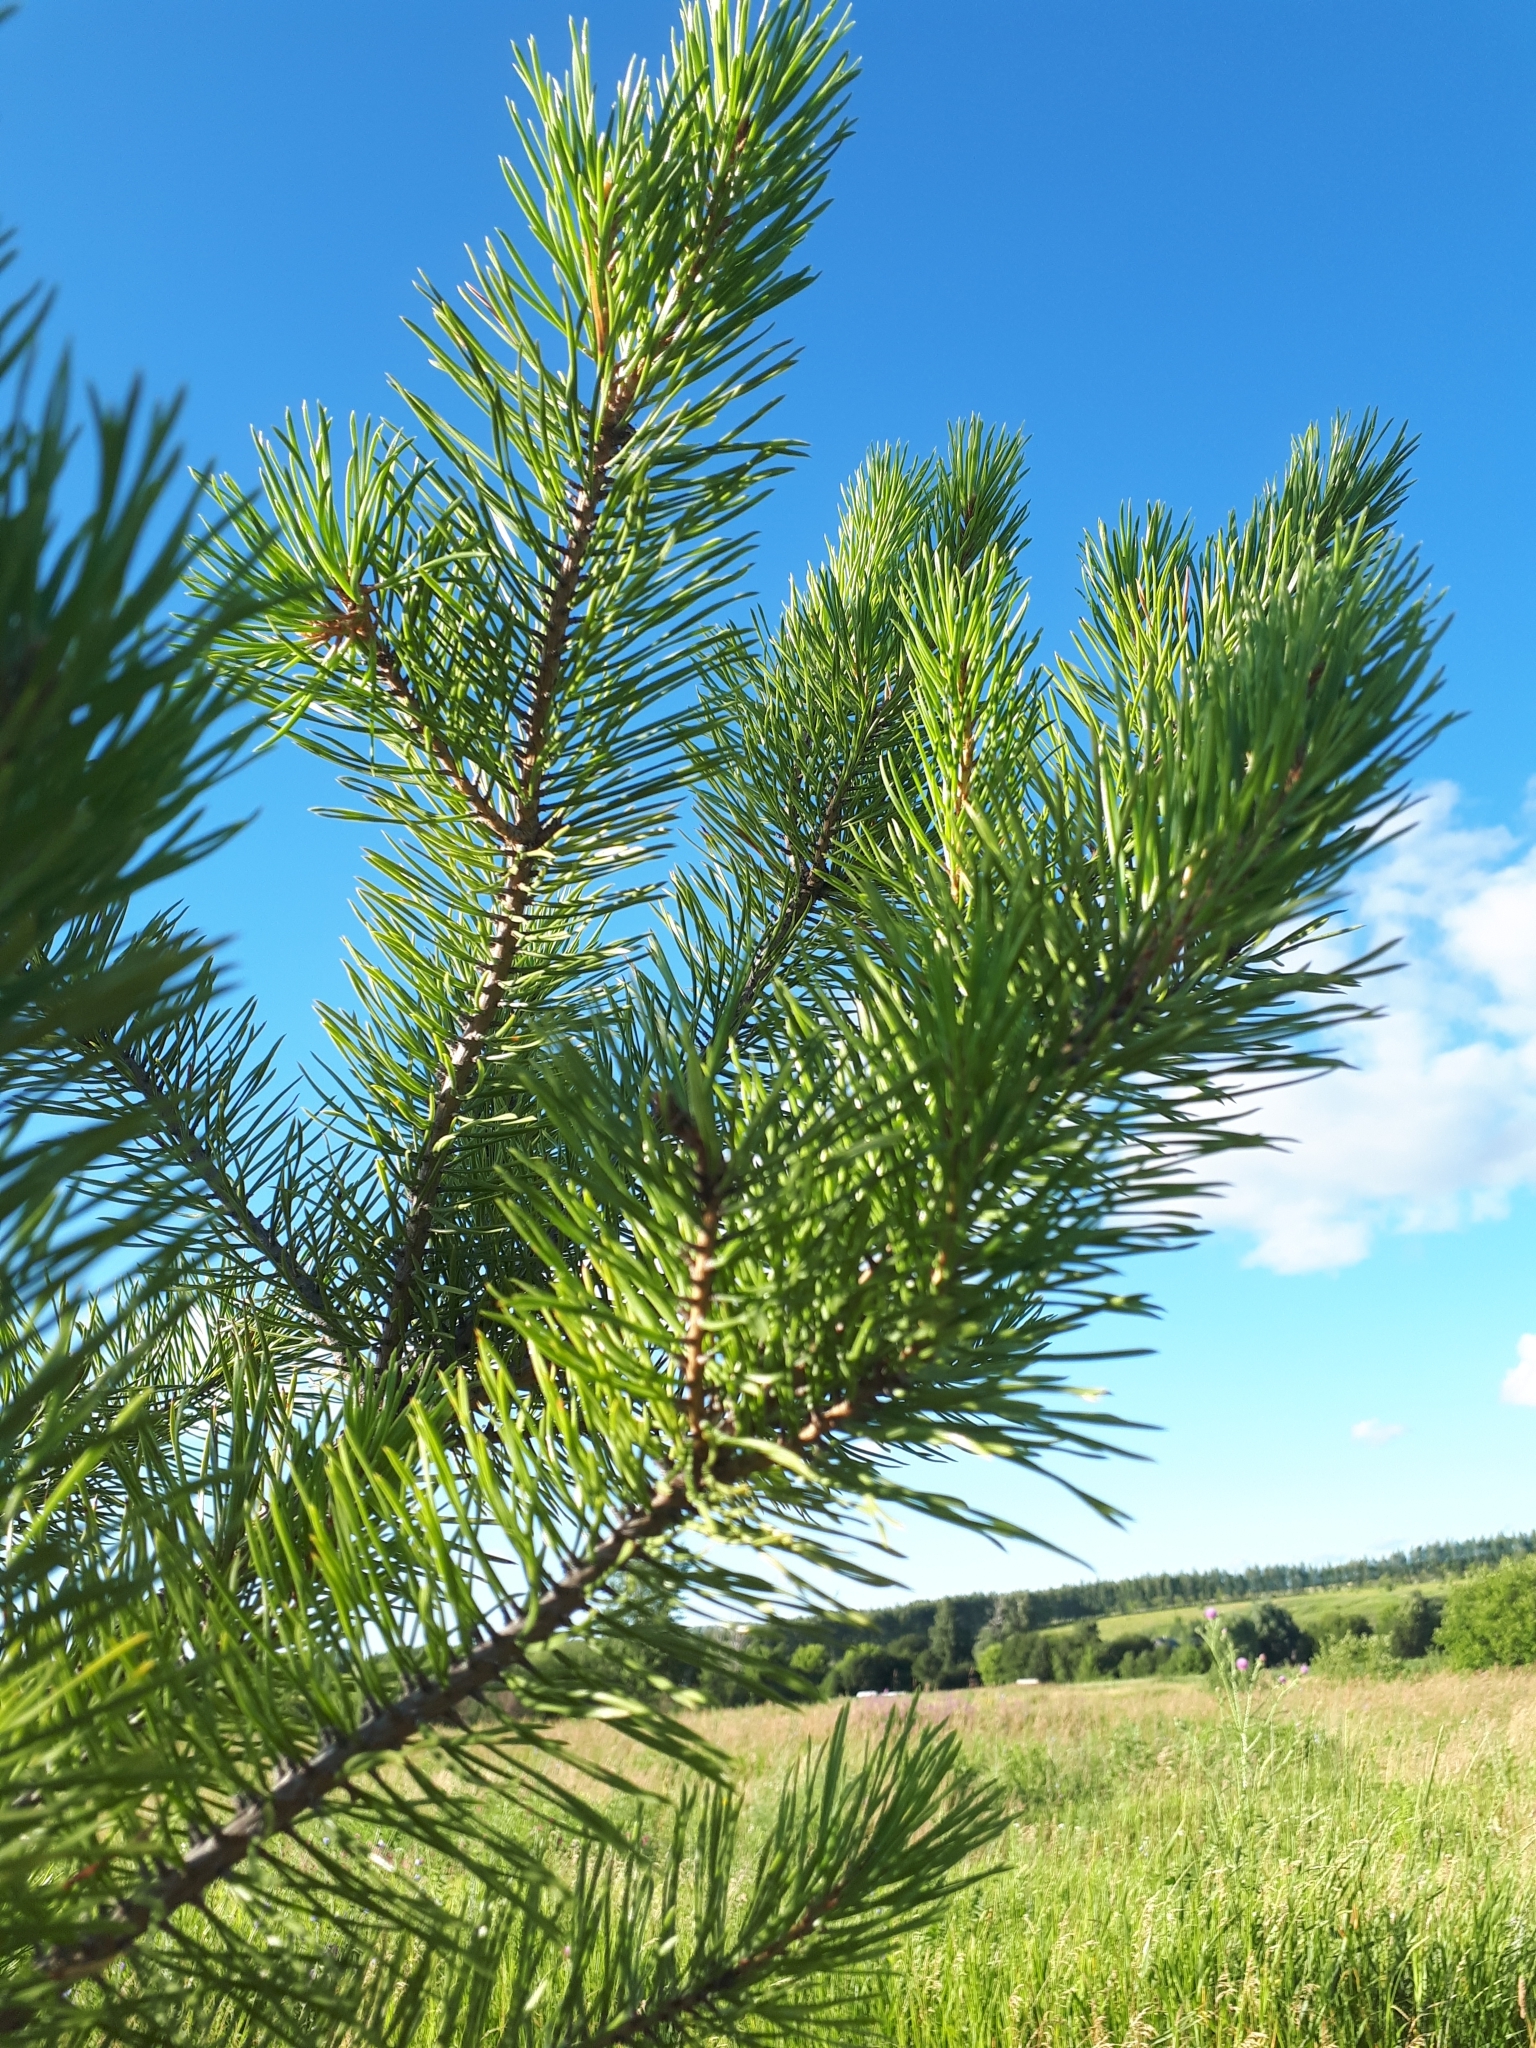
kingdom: Plantae
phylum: Tracheophyta
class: Pinopsida
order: Pinales
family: Pinaceae
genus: Pinus
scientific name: Pinus sylvestris
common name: Scots pine
